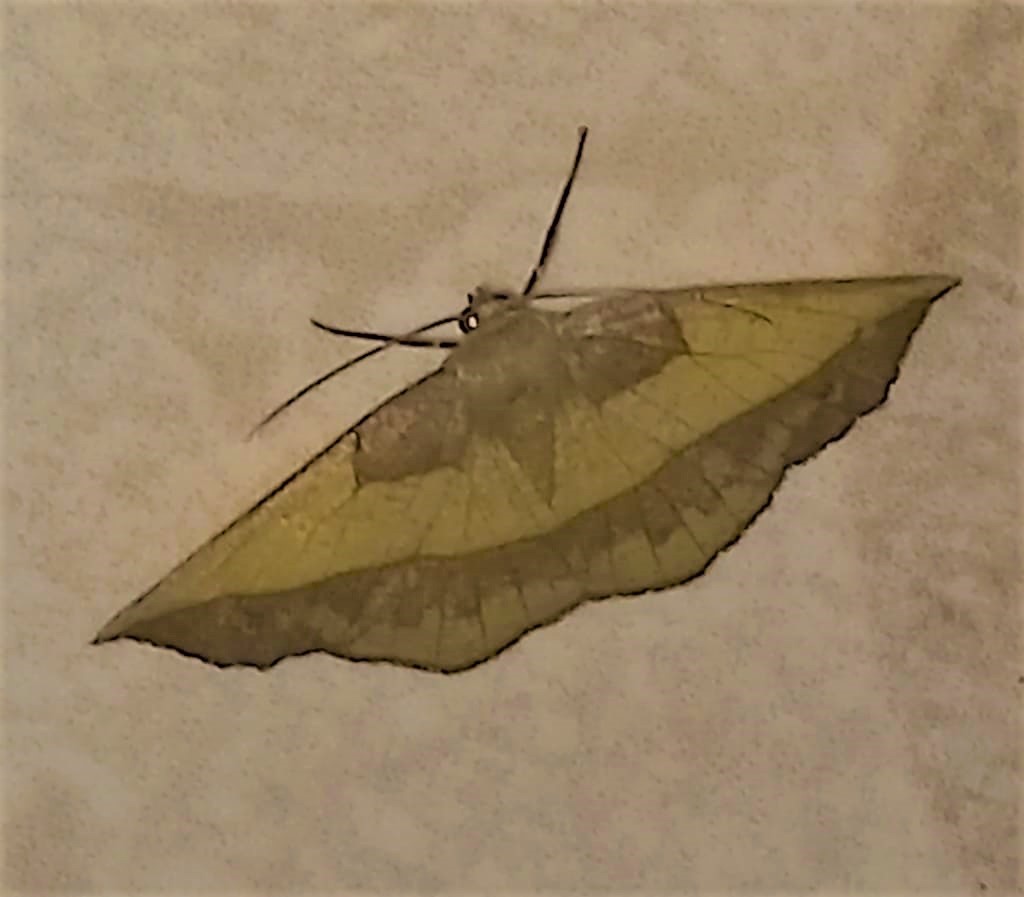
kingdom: Animalia
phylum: Arthropoda
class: Insecta
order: Lepidoptera
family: Geometridae
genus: Eusarca
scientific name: Eusarca fundaria
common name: Dark-edged eusarca moth
